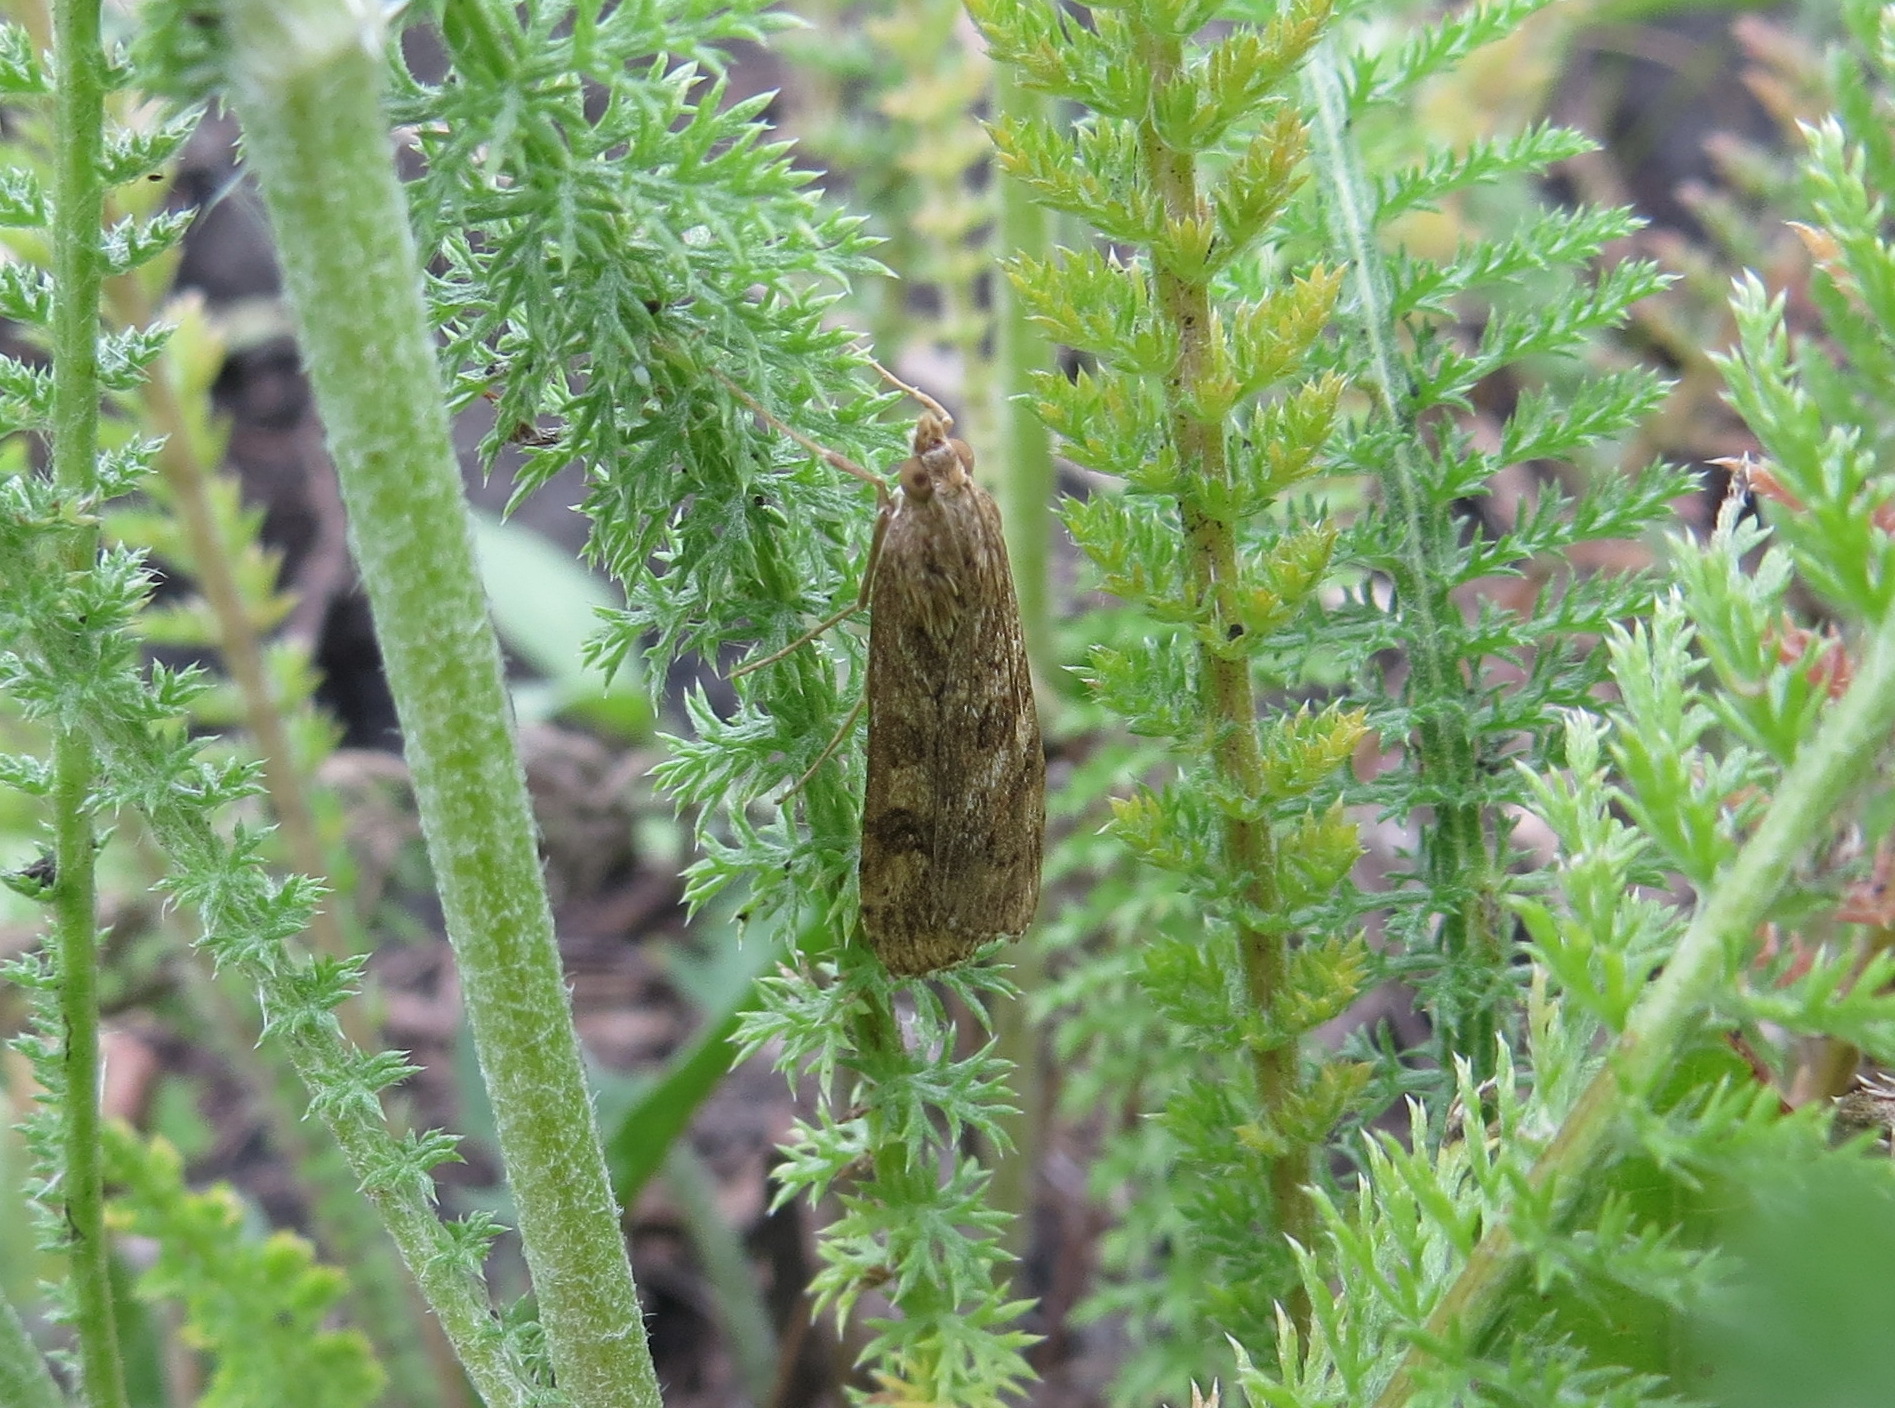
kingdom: Animalia
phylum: Arthropoda
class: Insecta
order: Lepidoptera
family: Crambidae
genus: Nomophila
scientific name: Nomophila noctuella
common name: Rush veneer
